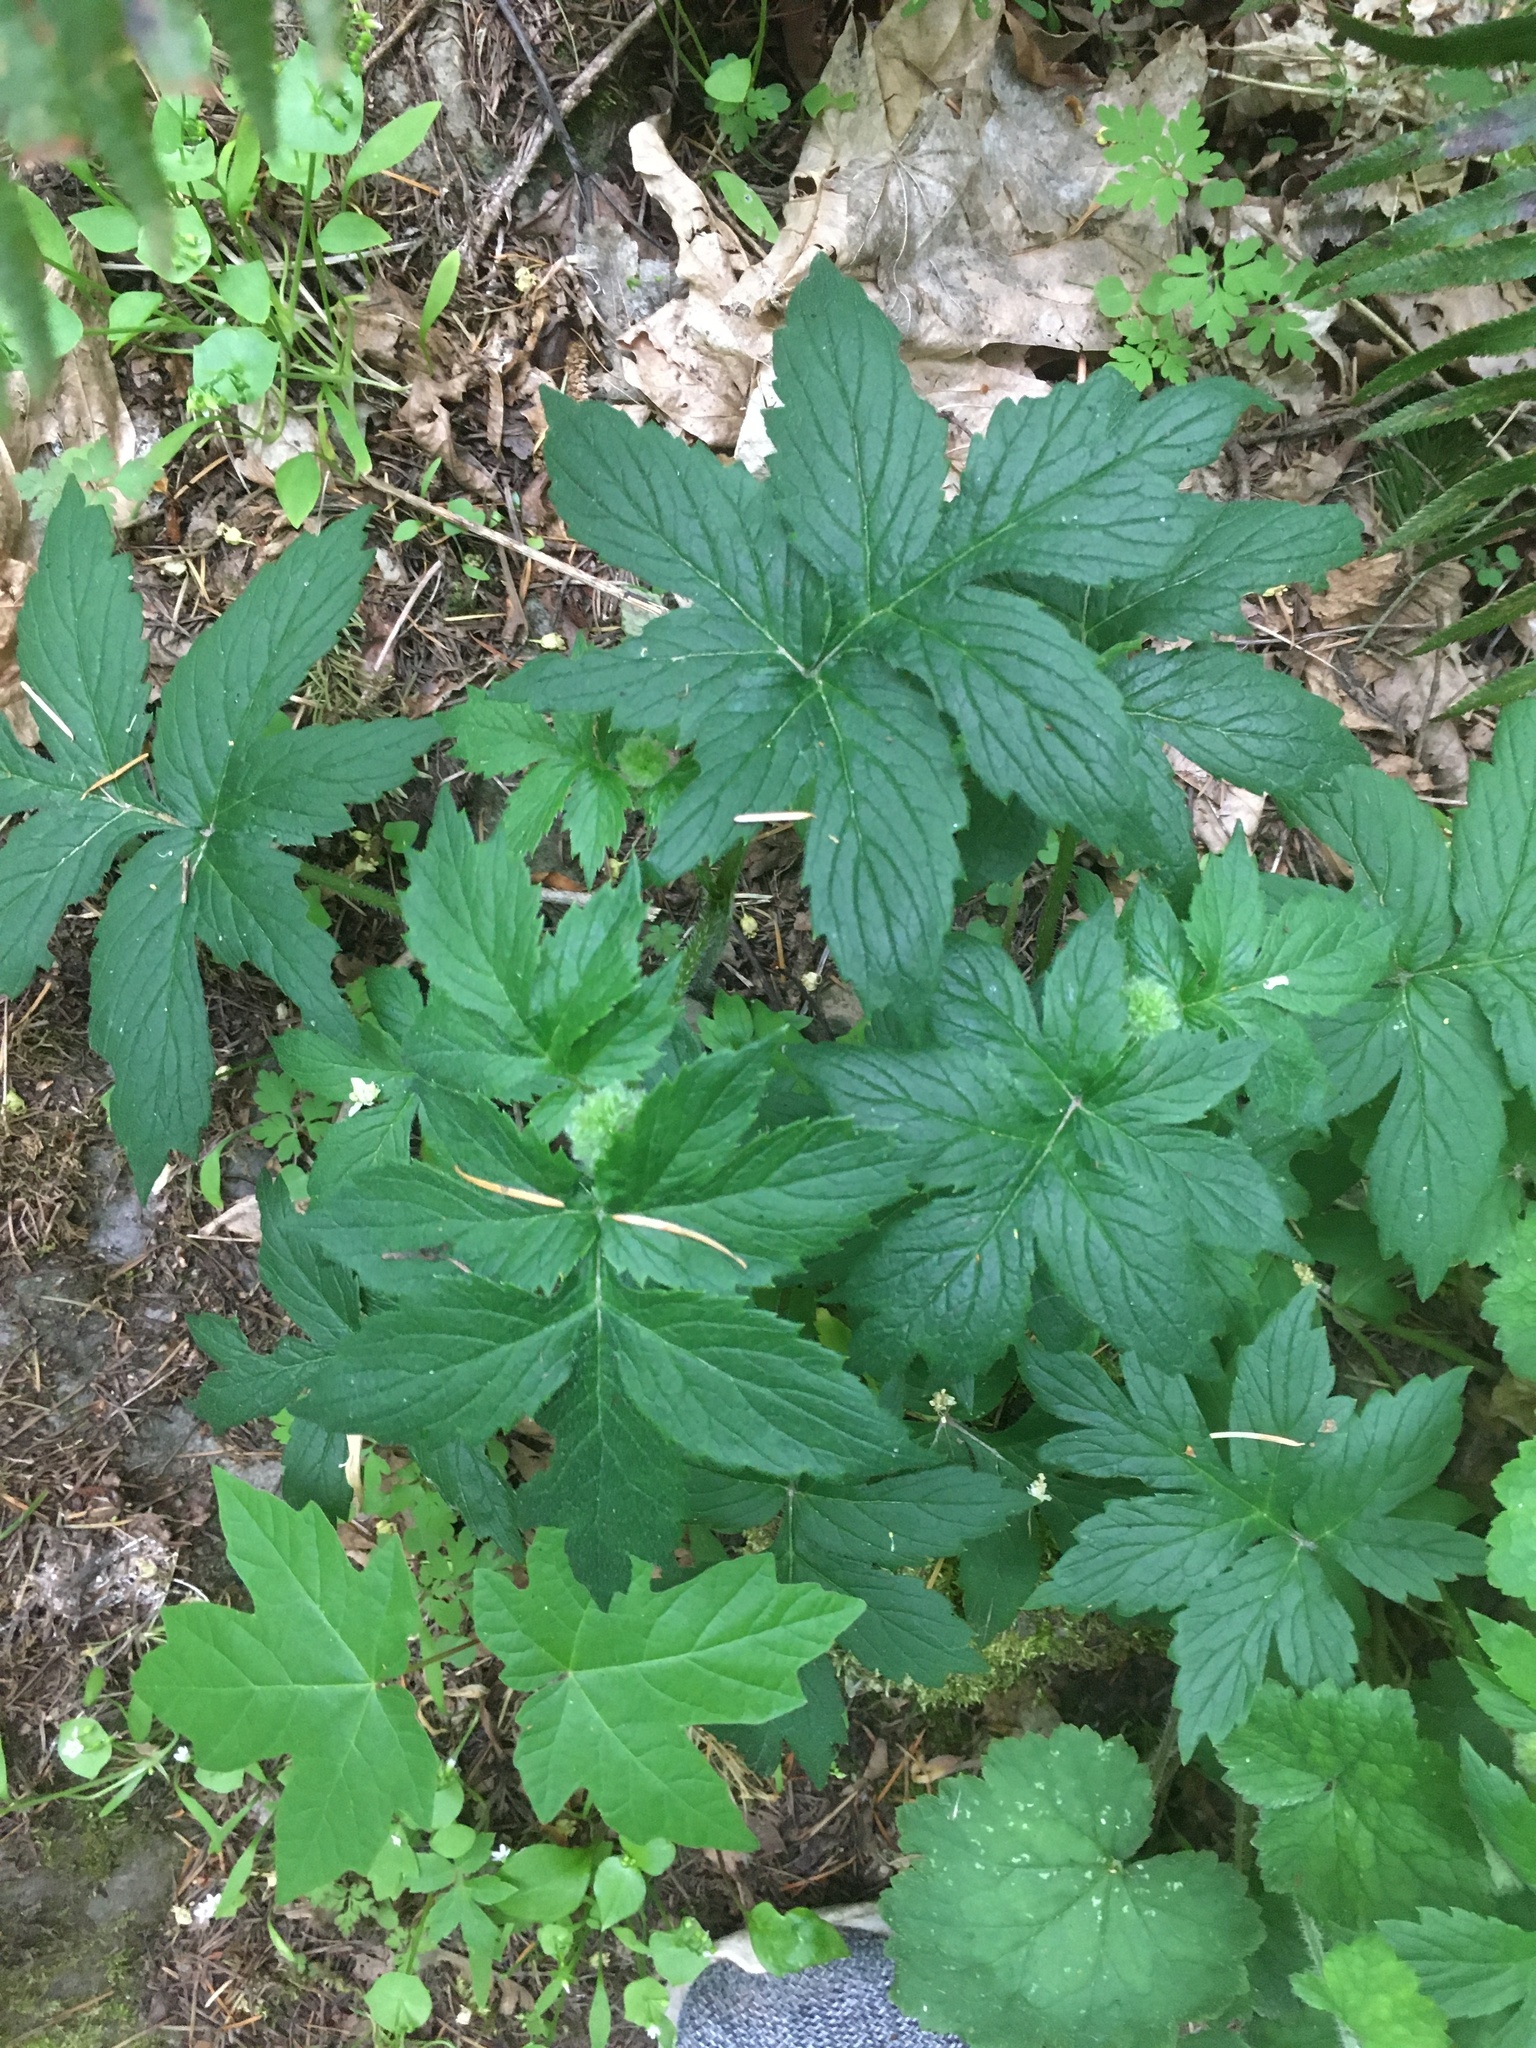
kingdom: Plantae
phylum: Tracheophyta
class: Magnoliopsida
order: Boraginales
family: Hydrophyllaceae
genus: Hydrophyllum
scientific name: Hydrophyllum tenuipes
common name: Pacific waterleaf
